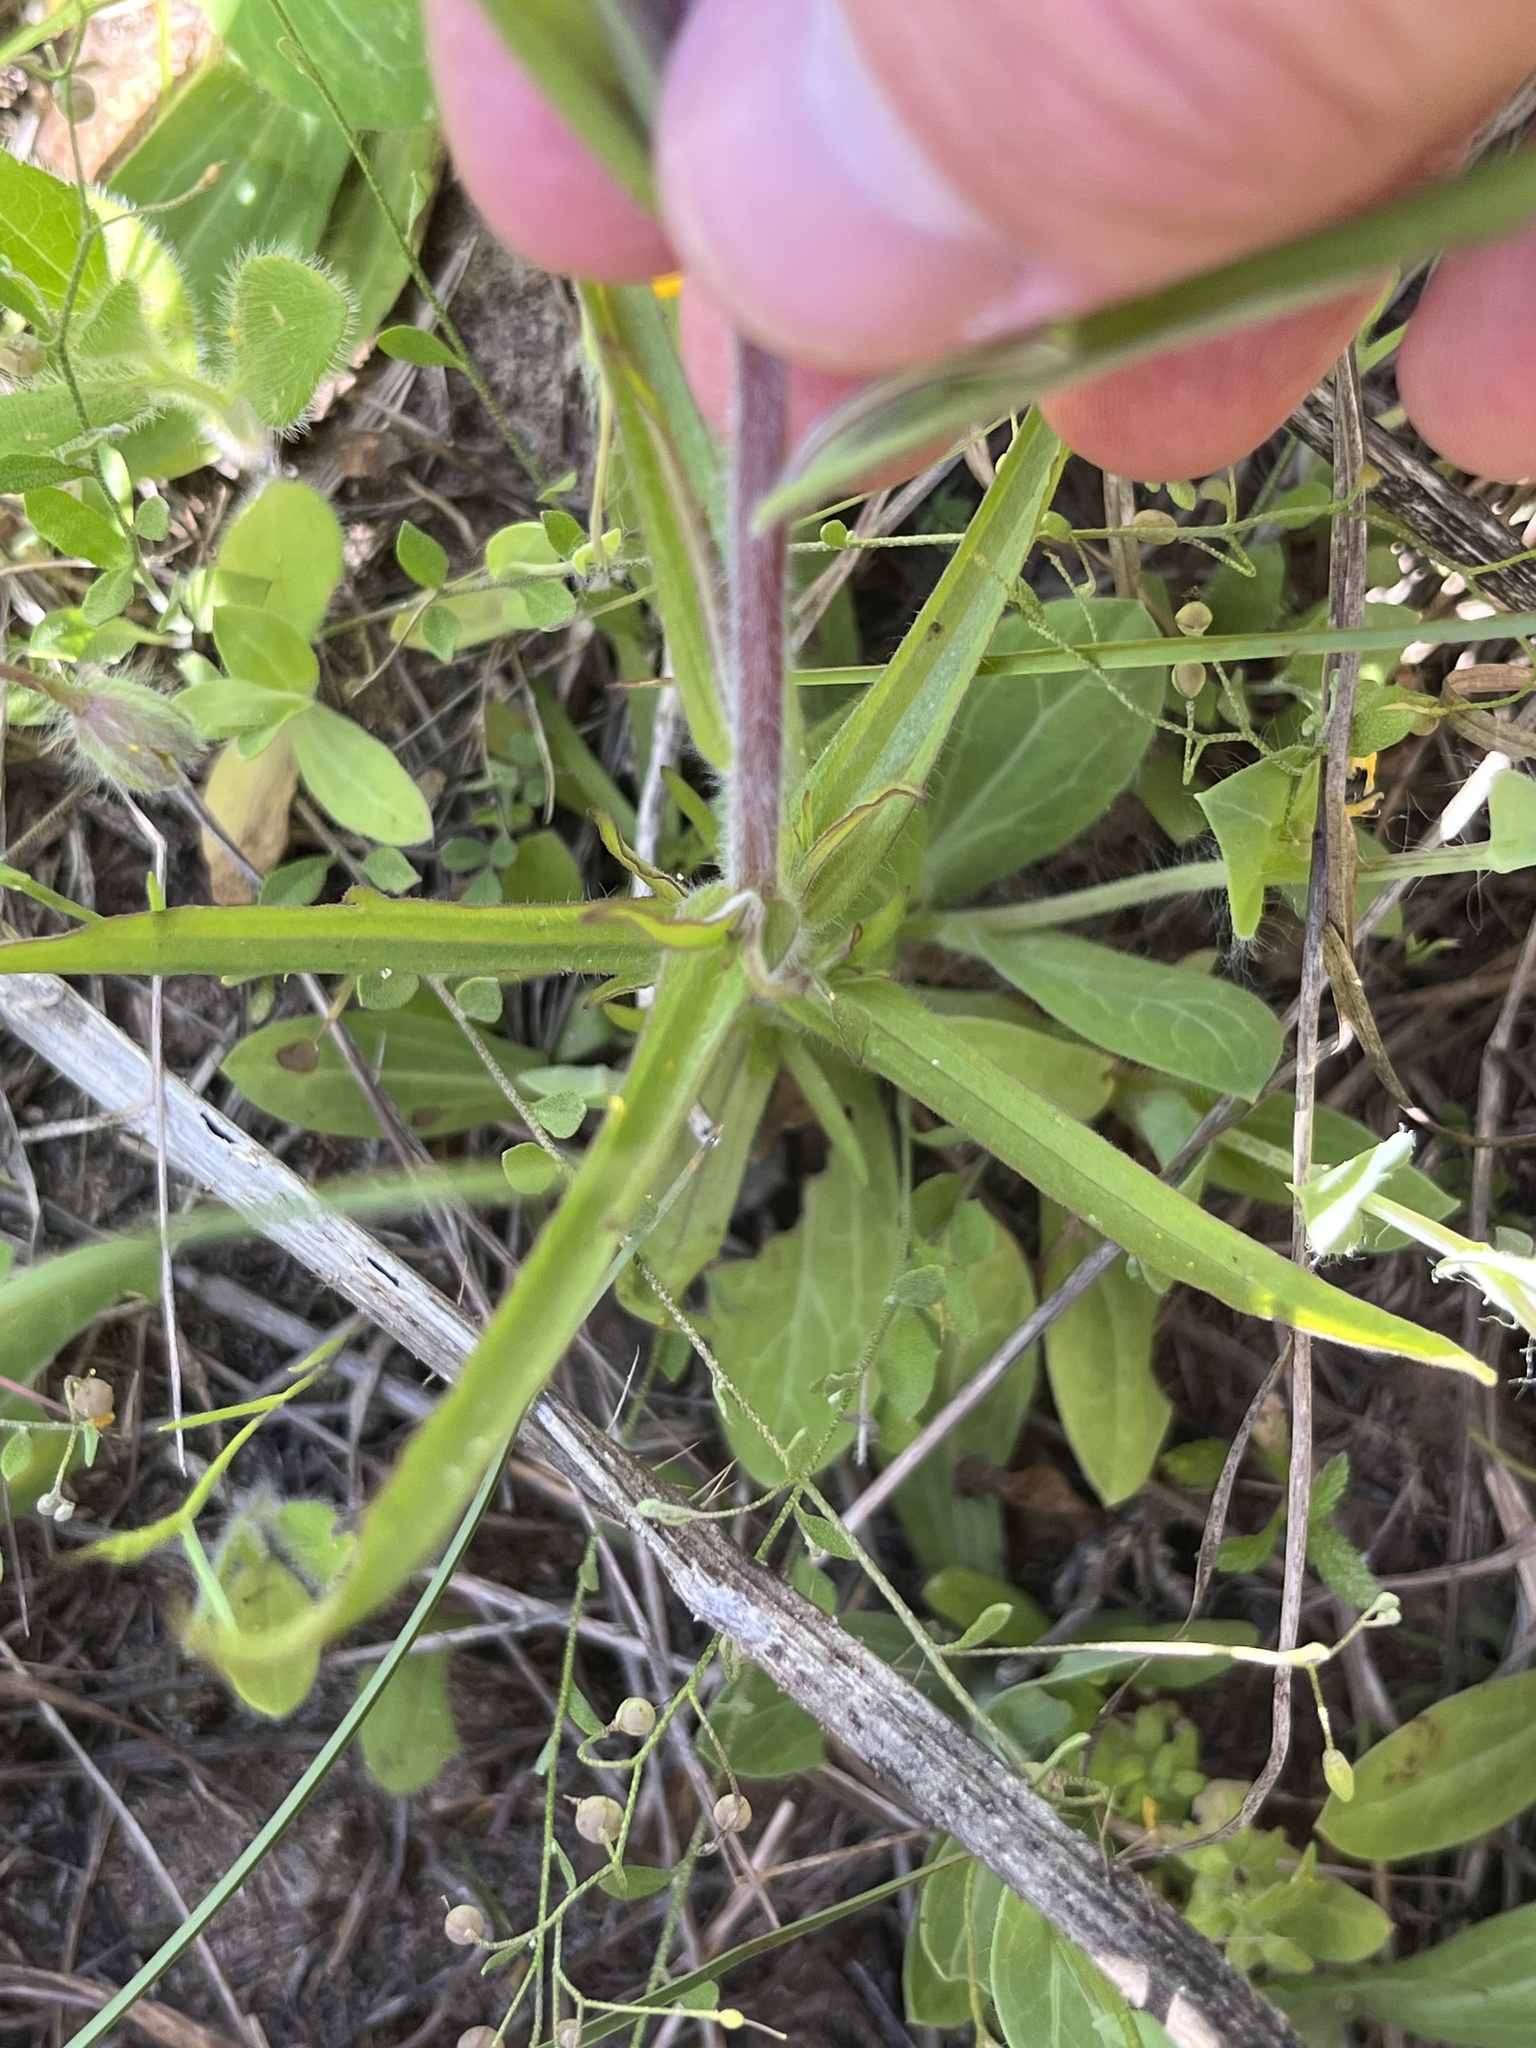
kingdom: Plantae
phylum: Tracheophyta
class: Magnoliopsida
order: Lamiales
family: Orobanchaceae
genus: Castilleja
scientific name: Castilleja indivisa
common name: Texas paintbrush
